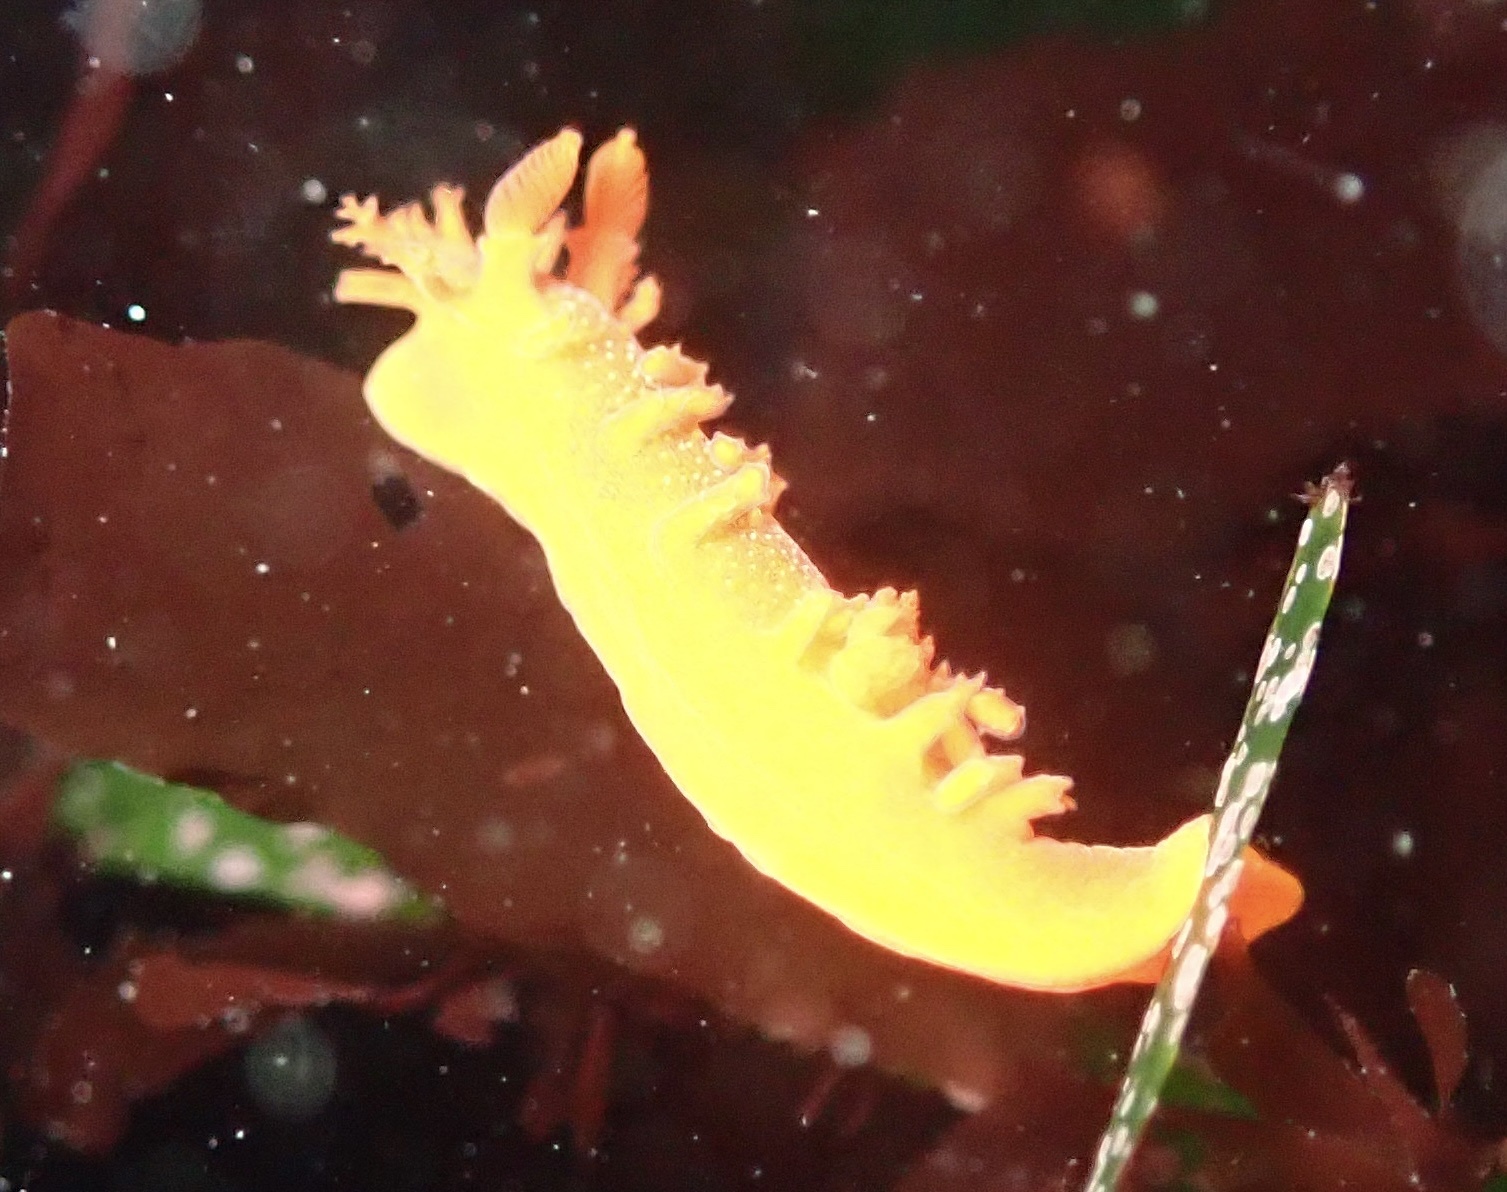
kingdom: Animalia
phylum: Mollusca
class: Gastropoda
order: Nudibranchia
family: Polyceridae
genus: Triopha
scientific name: Triopha maculata
